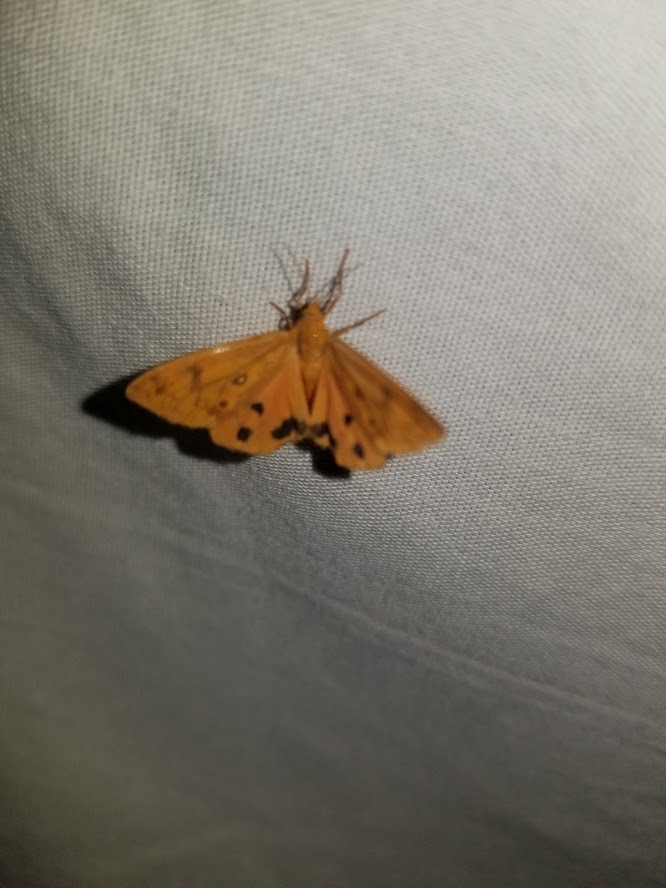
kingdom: Animalia
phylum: Arthropoda
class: Insecta
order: Lepidoptera
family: Erebidae
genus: Virbia
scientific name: Virbia aurantiaca
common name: Orange virbia moth
